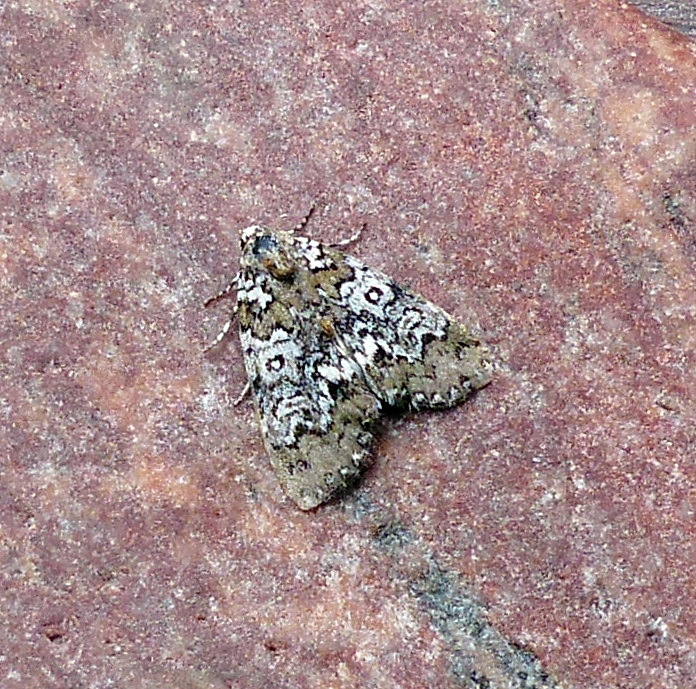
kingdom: Animalia
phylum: Arthropoda
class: Insecta
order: Lepidoptera
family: Noctuidae
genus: Cerma
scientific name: Cerma cora
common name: Bird dropping moth
